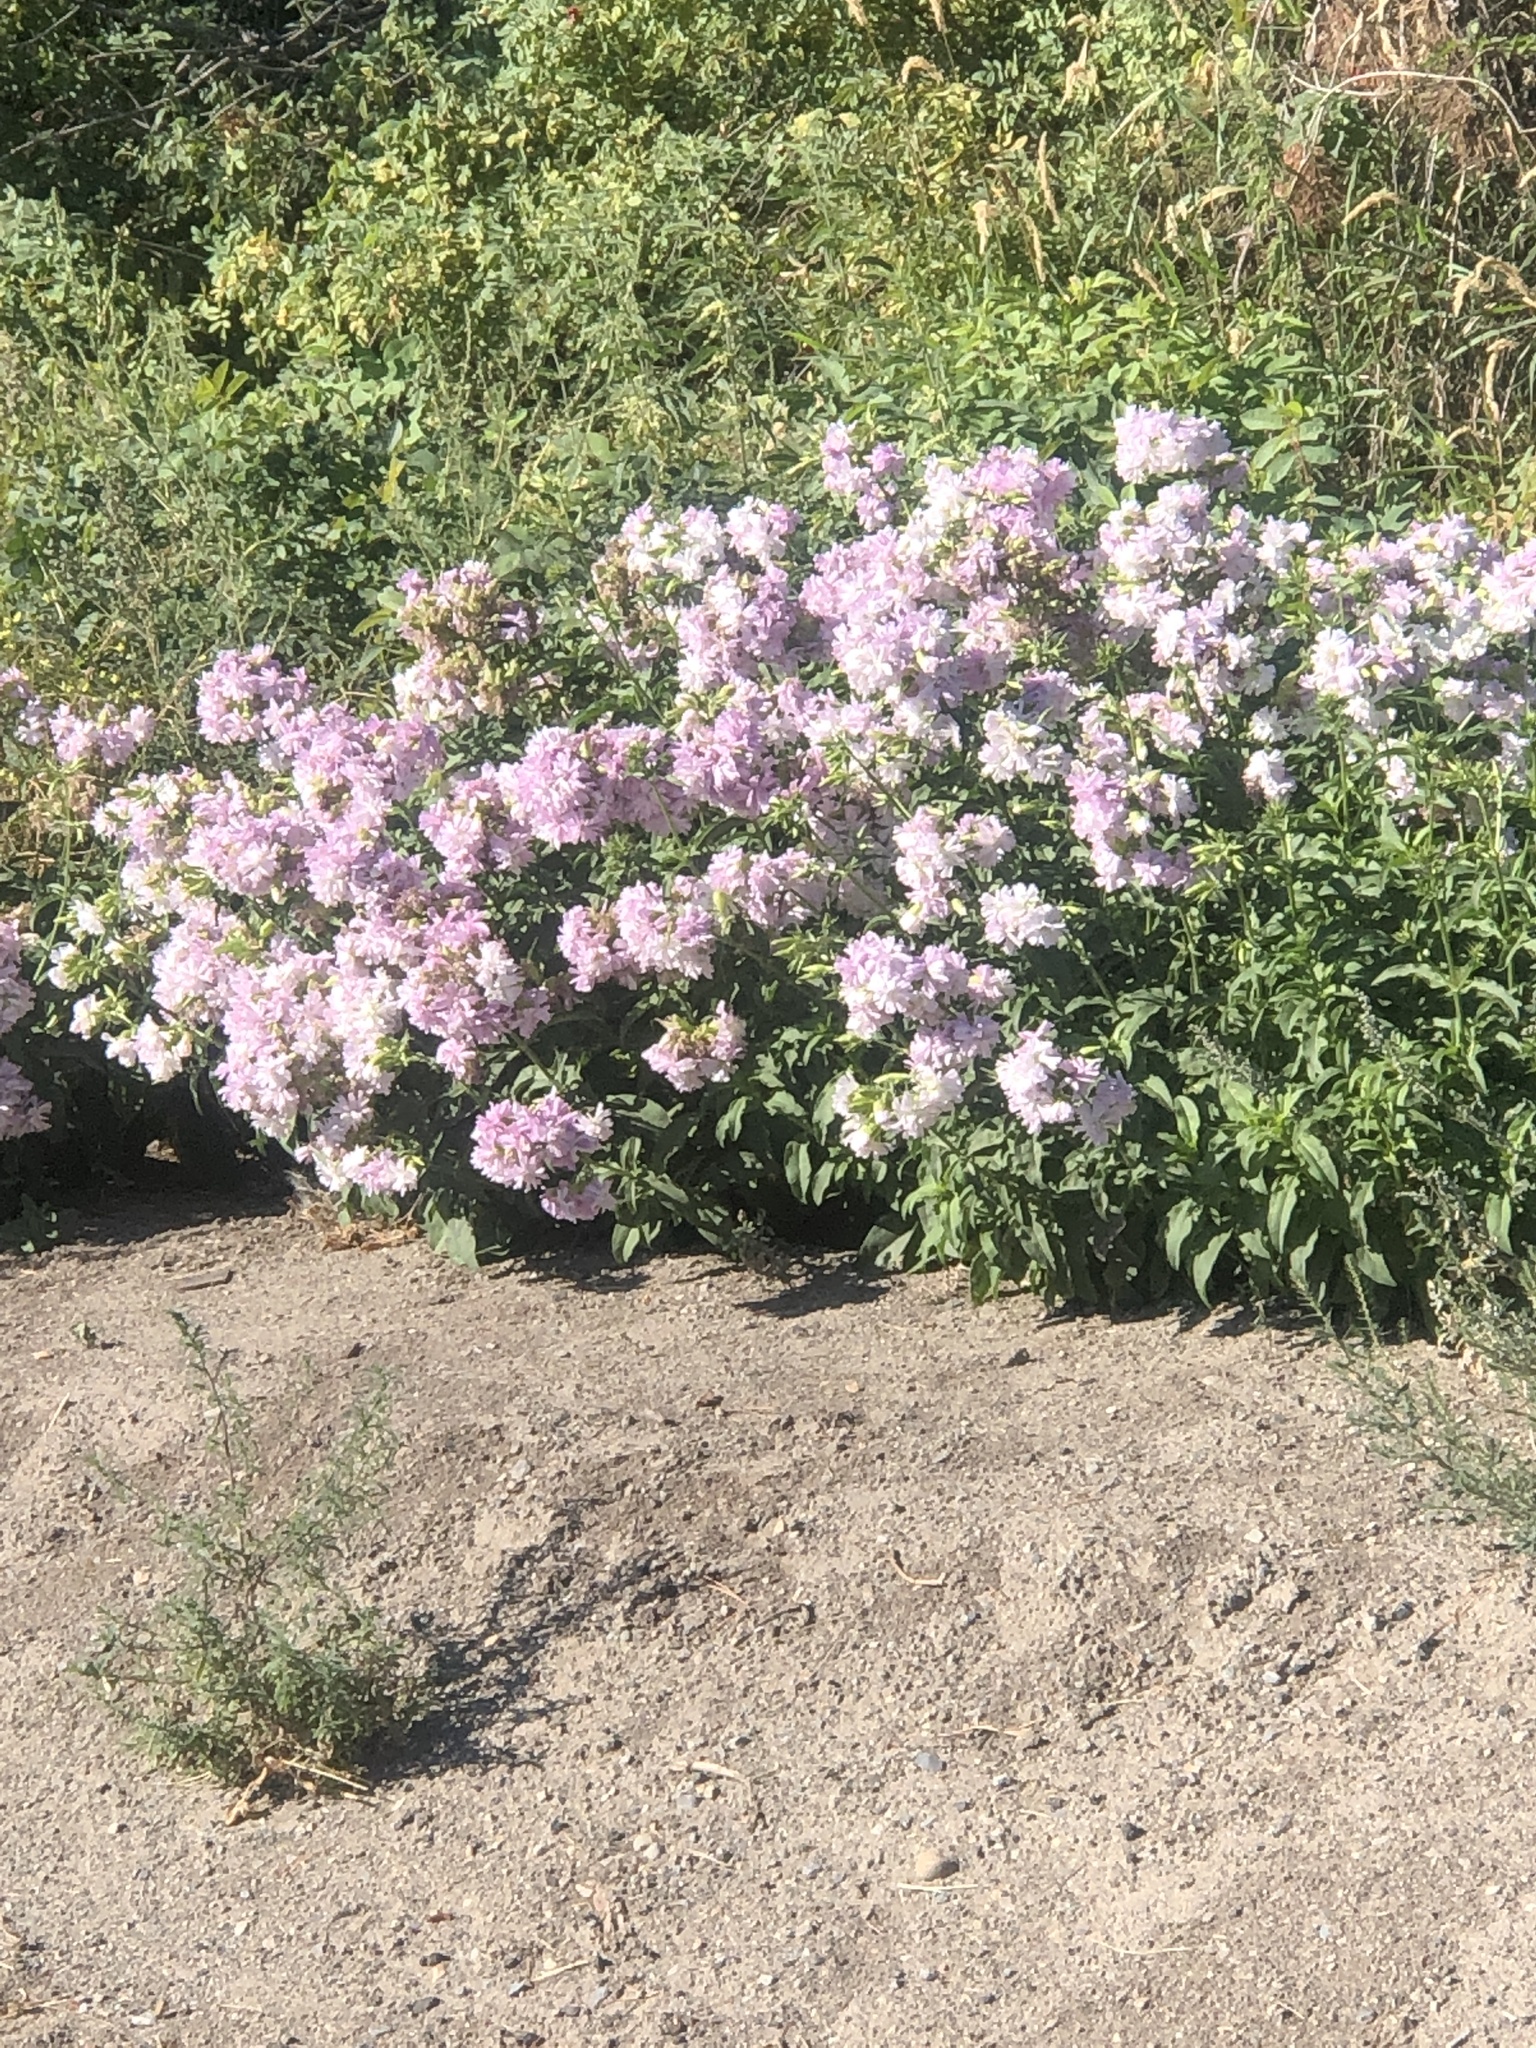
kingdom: Plantae
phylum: Tracheophyta
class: Magnoliopsida
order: Caryophyllales
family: Caryophyllaceae
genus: Saponaria
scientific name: Saponaria officinalis
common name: Soapwort
